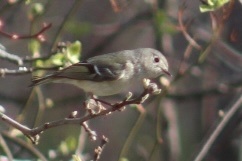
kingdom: Animalia
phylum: Chordata
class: Aves
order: Passeriformes
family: Regulidae
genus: Regulus
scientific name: Regulus calendula
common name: Ruby-crowned kinglet
